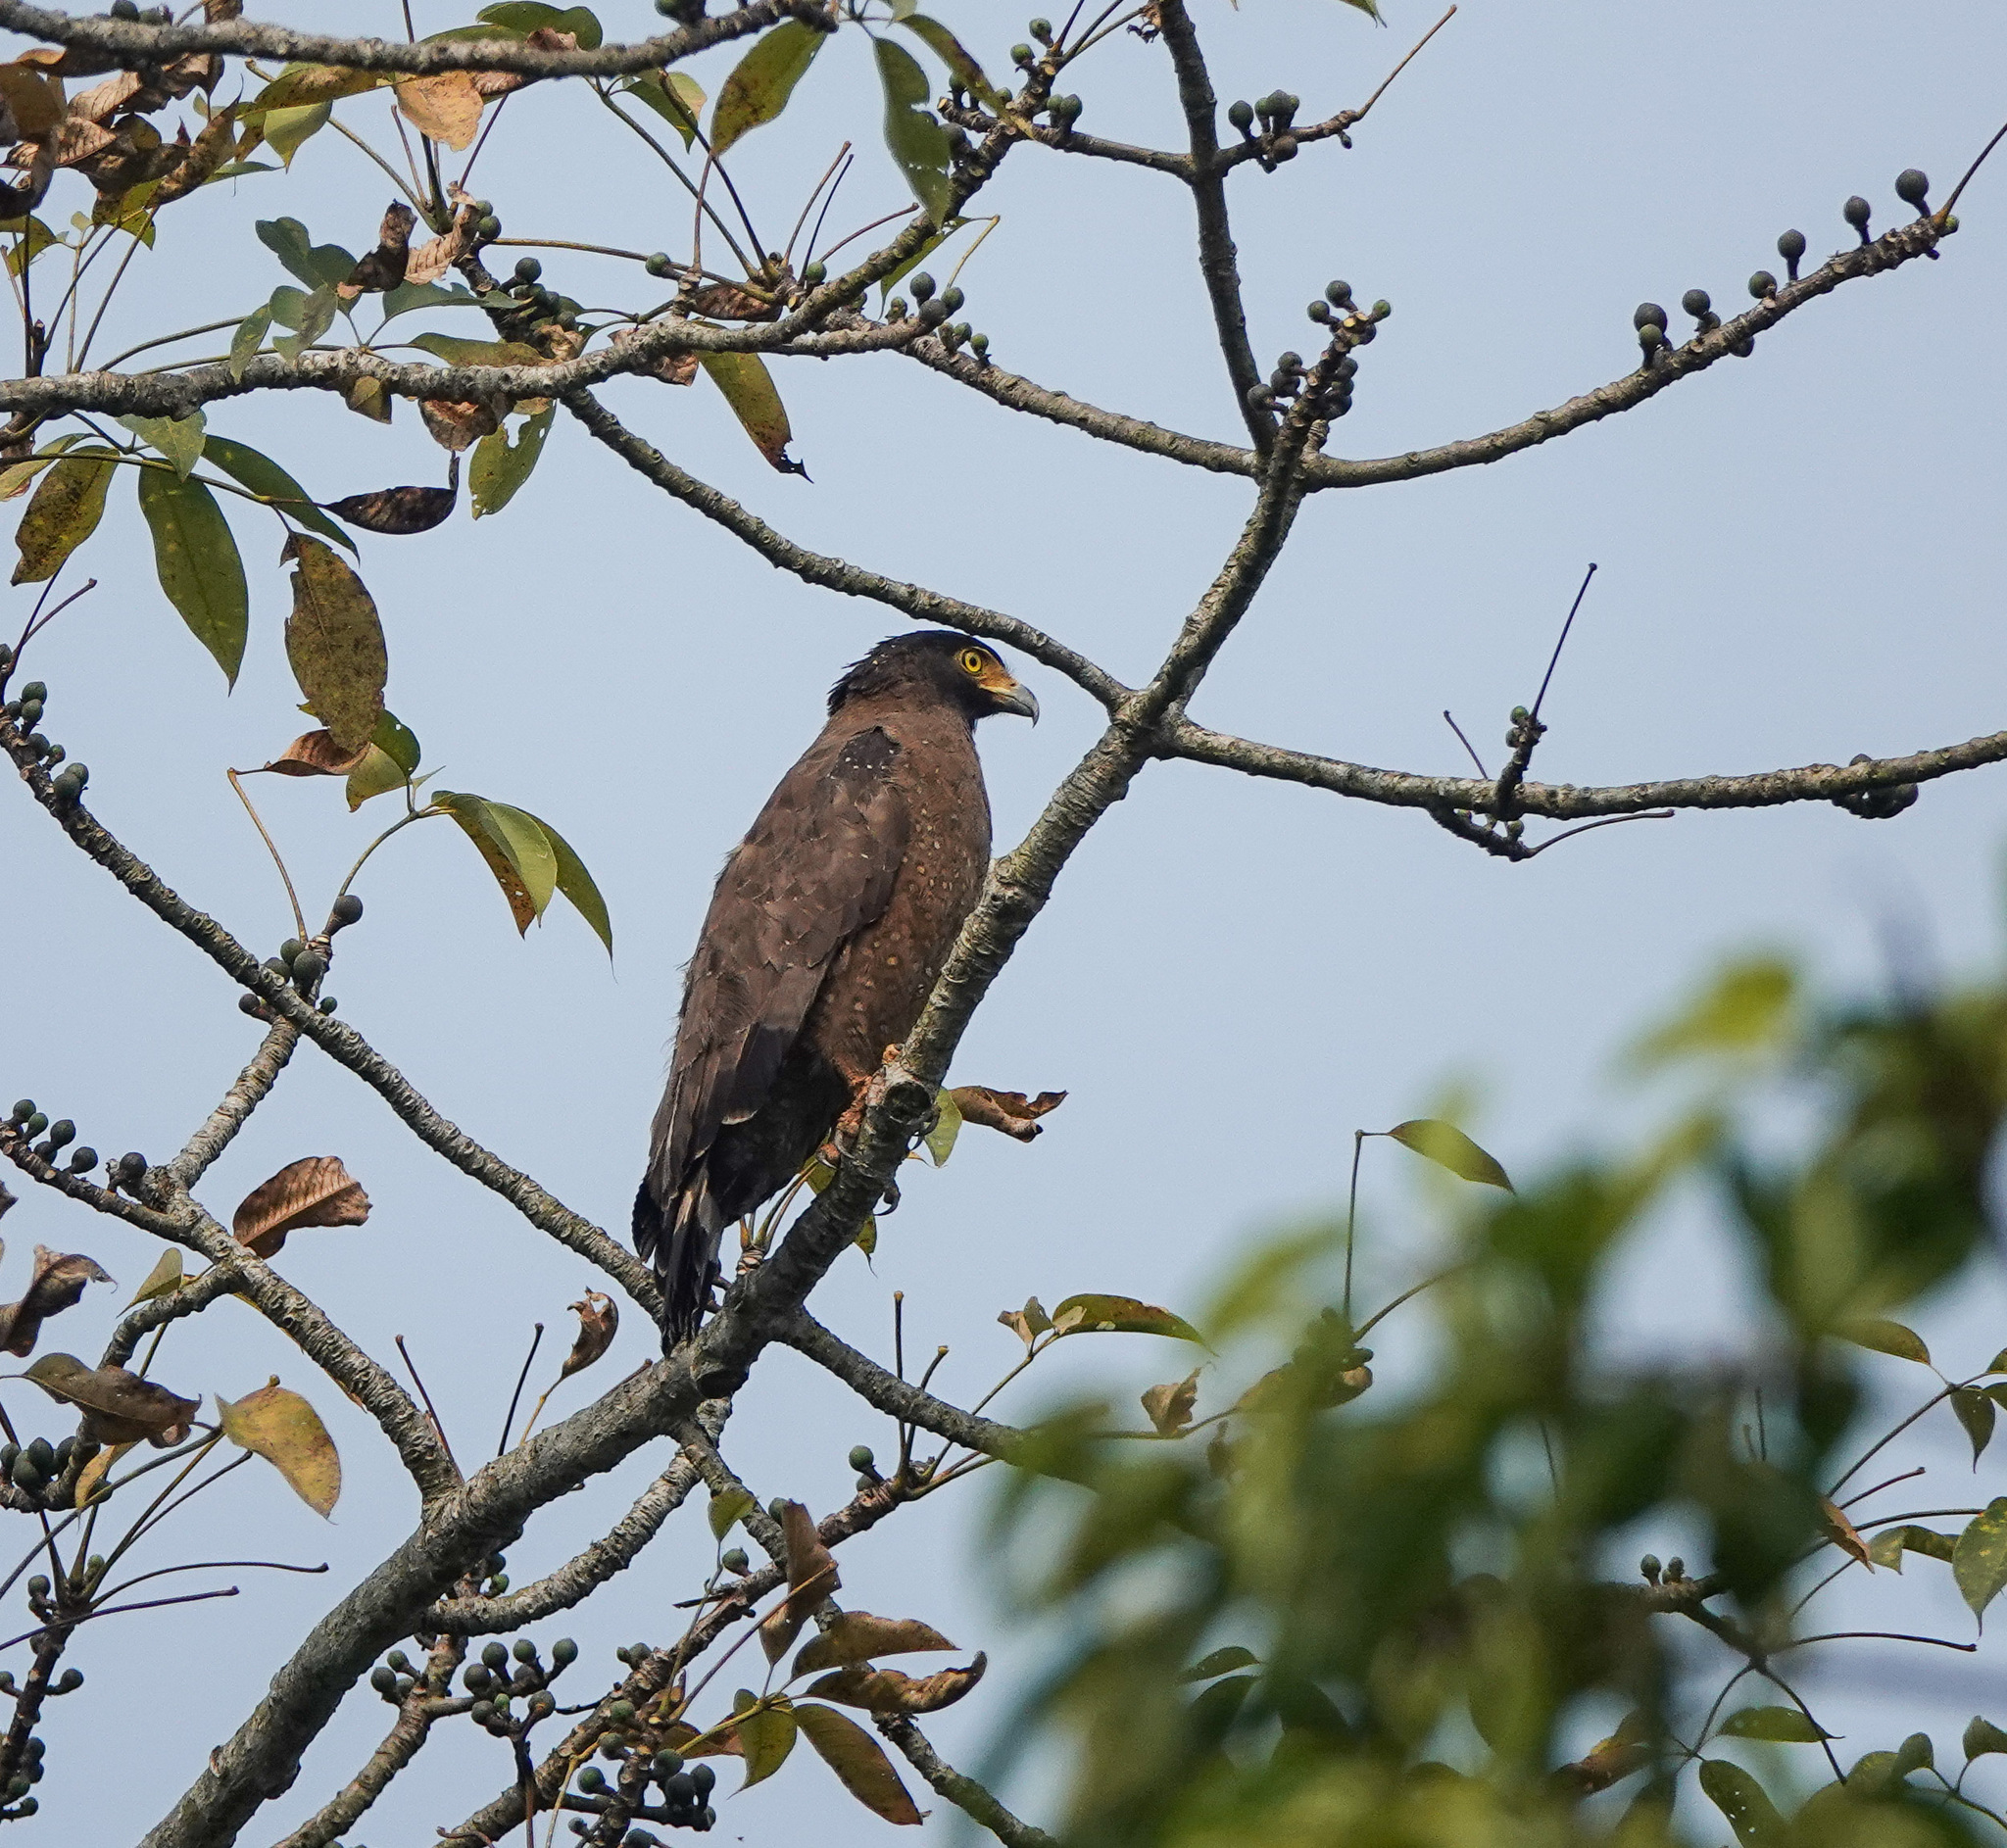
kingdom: Animalia
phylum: Chordata
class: Aves
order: Accipitriformes
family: Accipitridae
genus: Spilornis
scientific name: Spilornis cheela
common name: Crested serpent eagle
